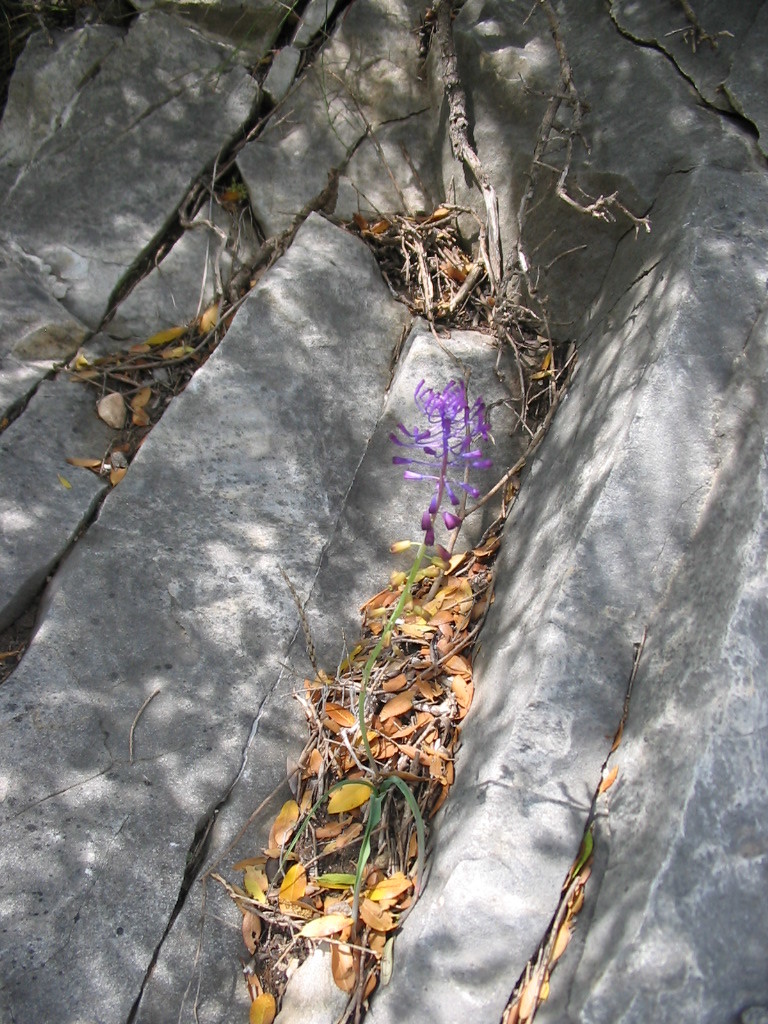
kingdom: Plantae
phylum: Tracheophyta
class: Liliopsida
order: Asparagales
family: Asparagaceae
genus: Muscari
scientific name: Muscari comosum
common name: Tassel hyacinth
